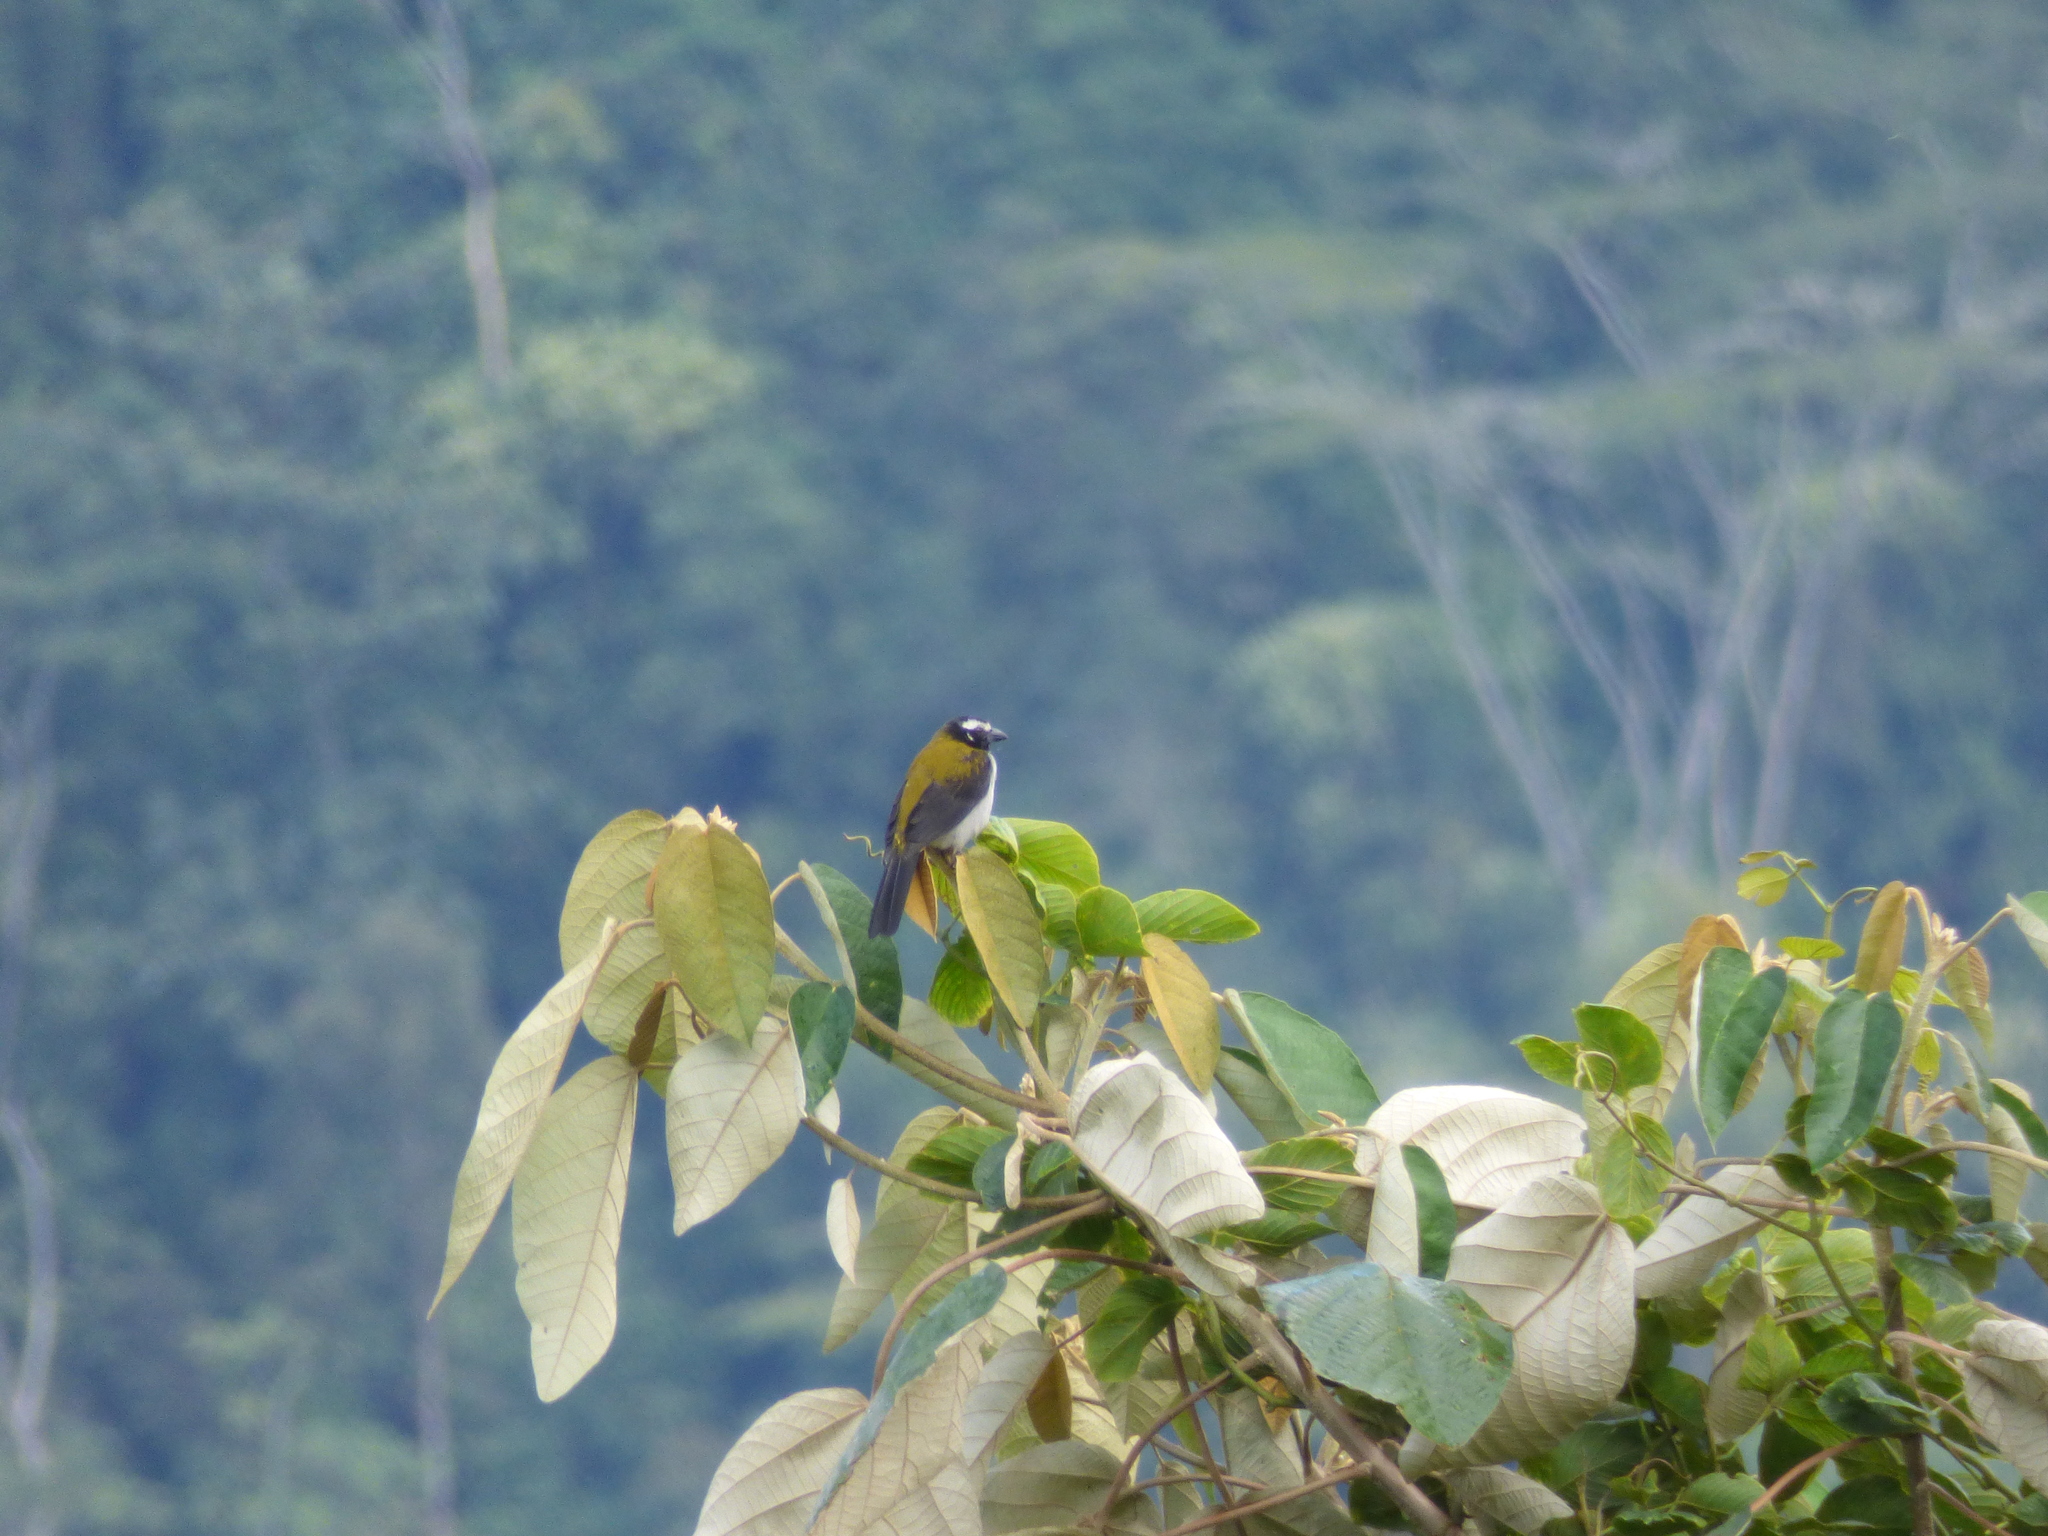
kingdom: Animalia
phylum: Chordata
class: Aves
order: Passeriformes
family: Thraupidae
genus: Saltator
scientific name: Saltator atripennis
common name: Black-winged saltator
